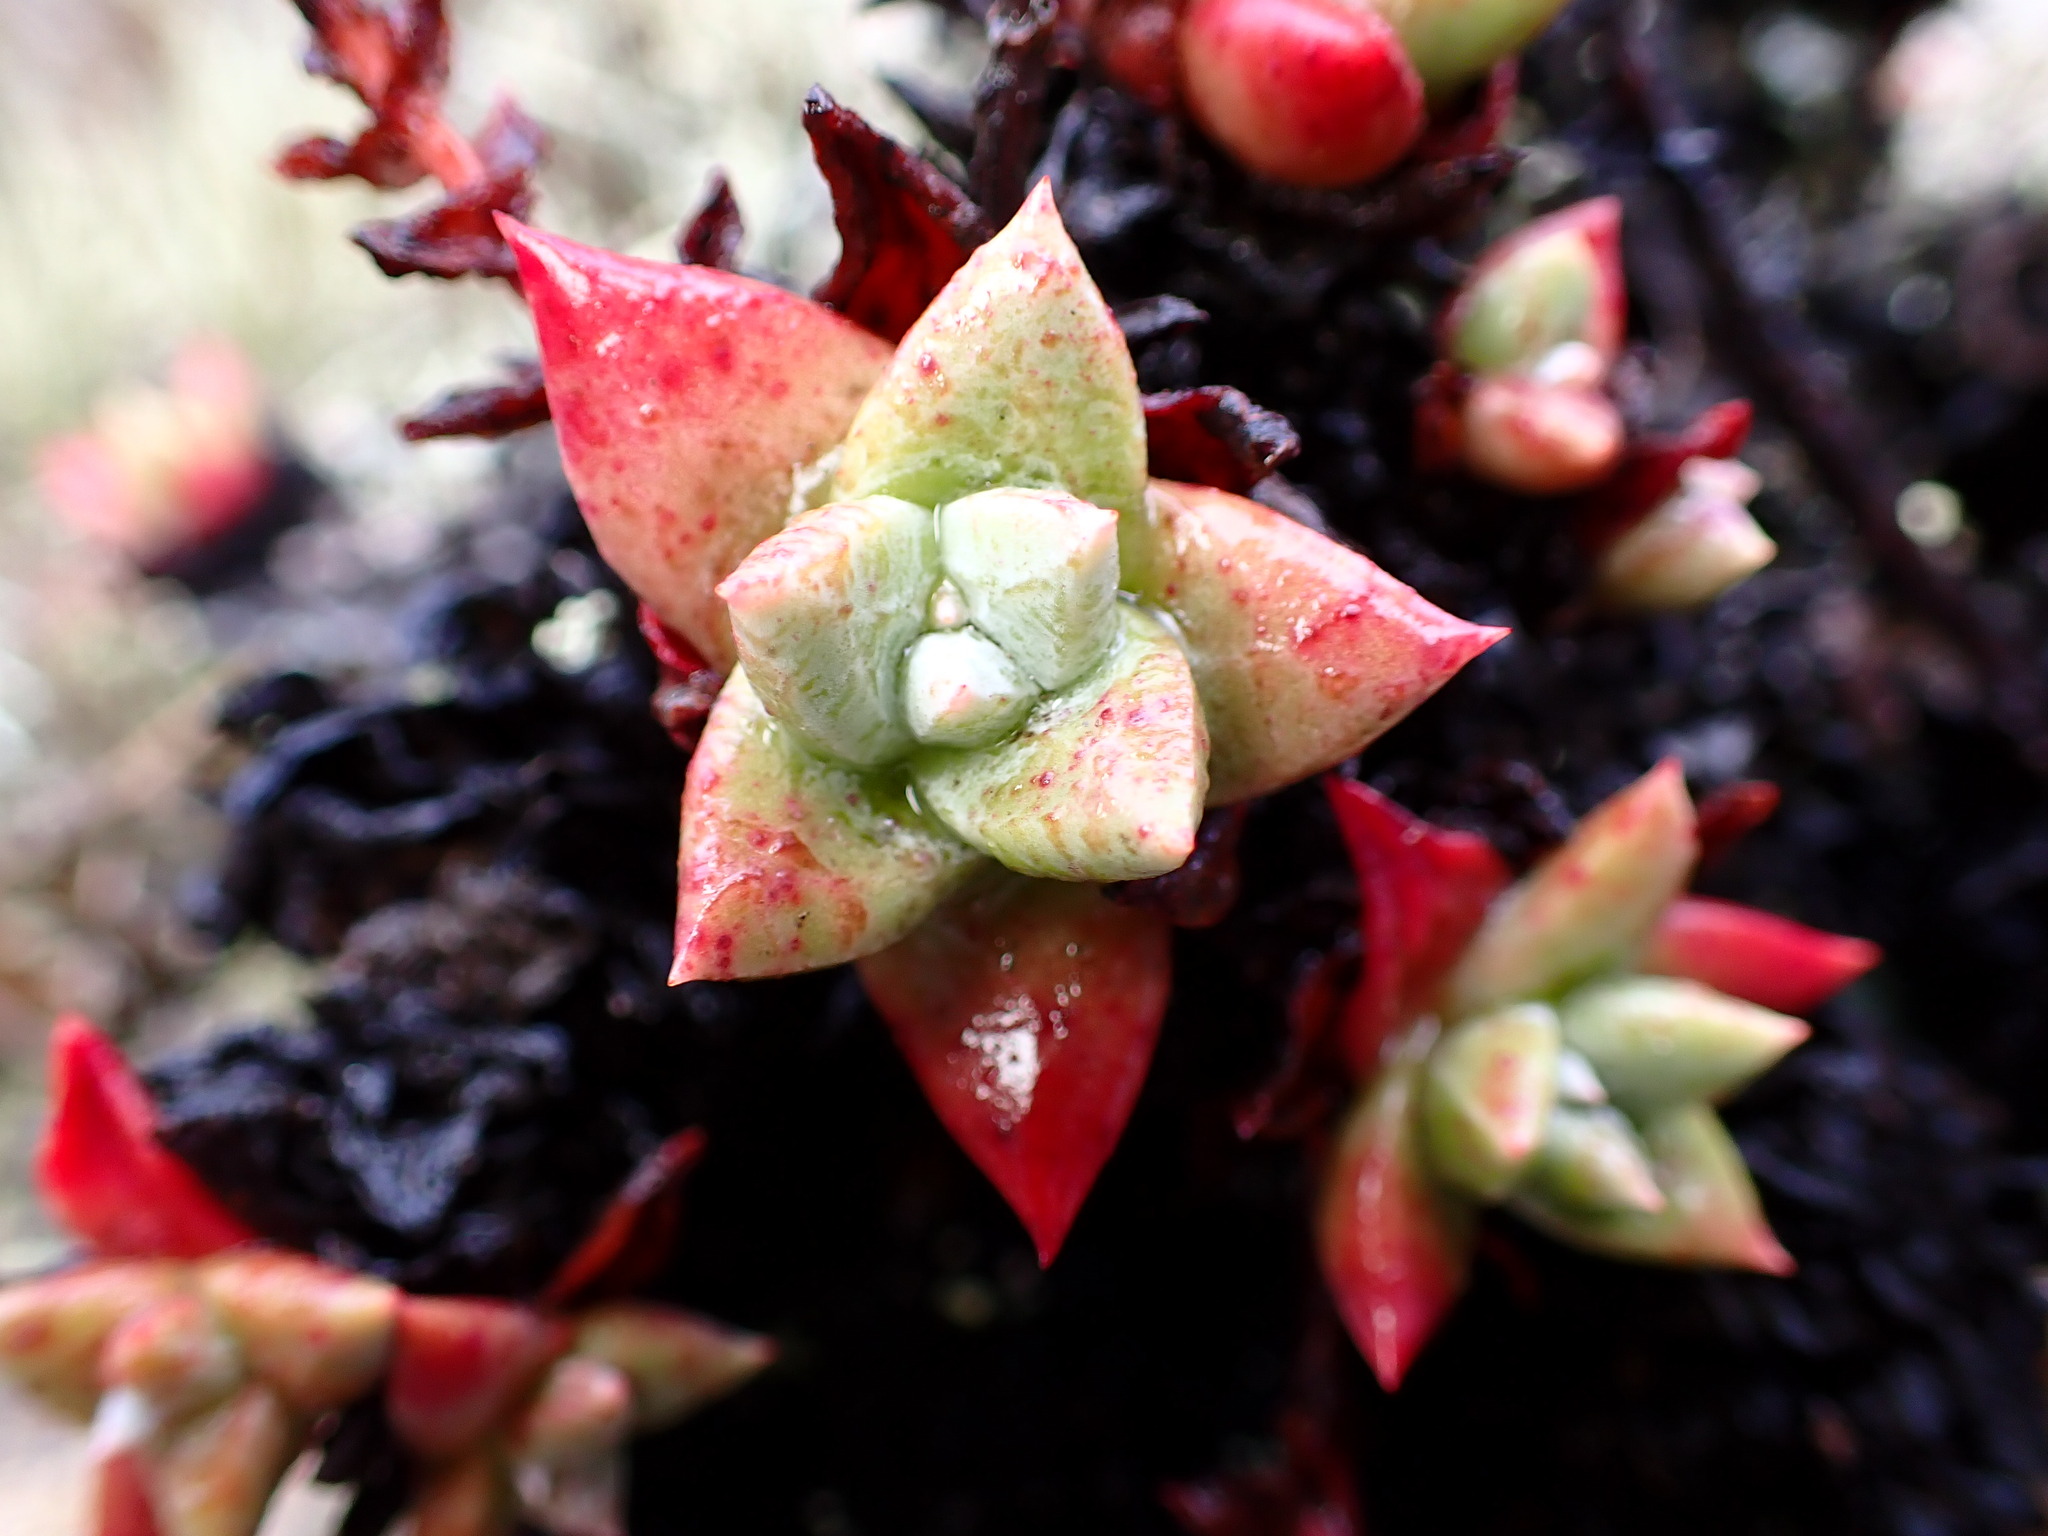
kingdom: Plantae
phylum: Tracheophyta
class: Magnoliopsida
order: Saxifragales
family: Crassulaceae
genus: Dudleya
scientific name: Dudleya farinosa
